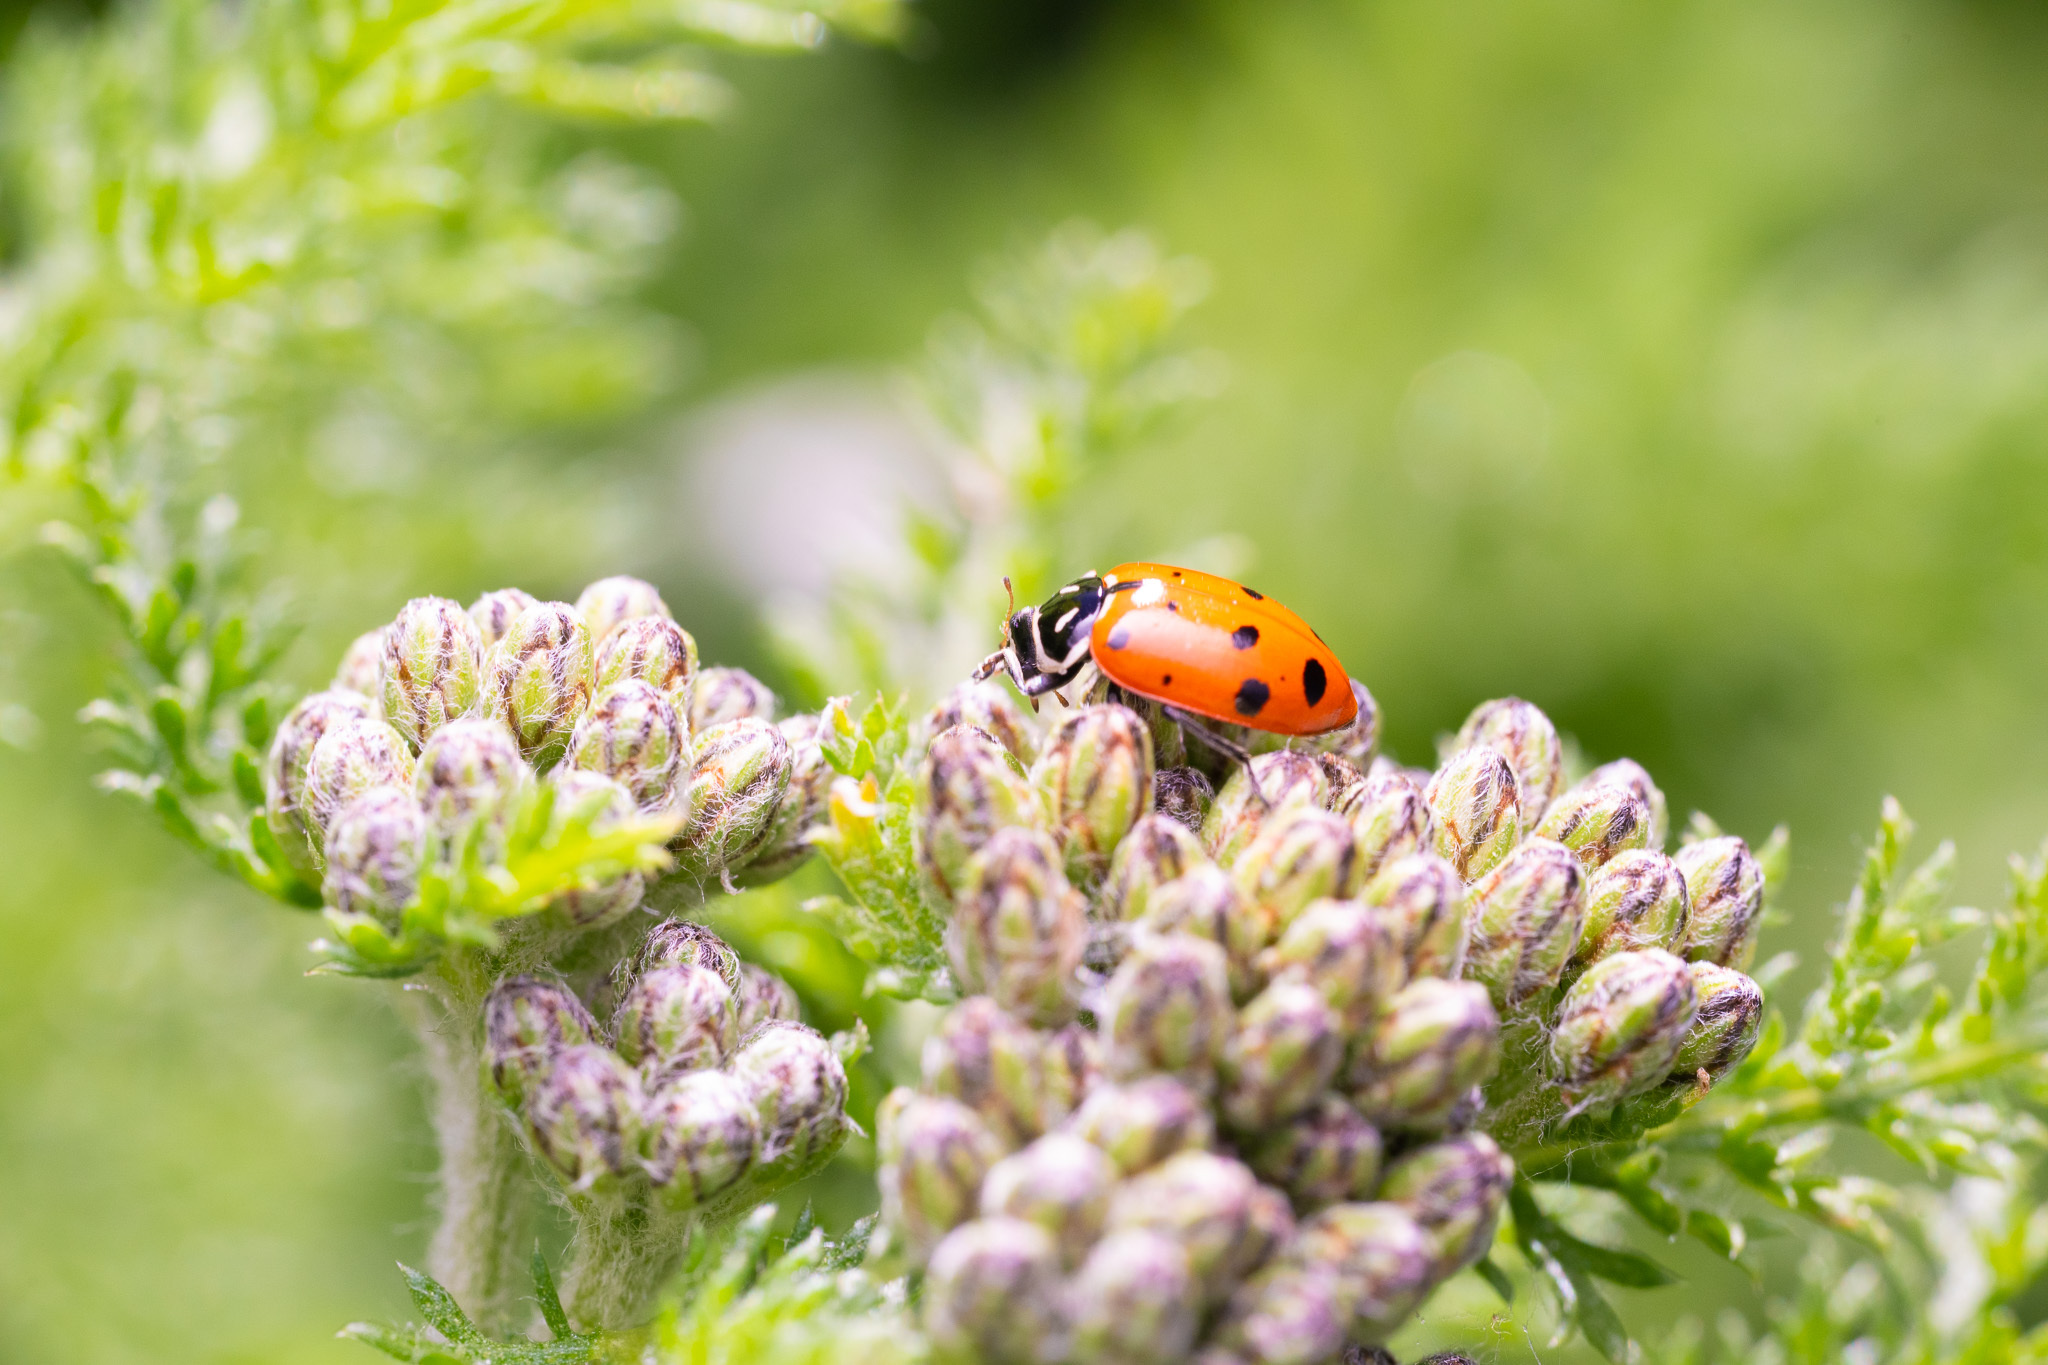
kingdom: Animalia
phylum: Arthropoda
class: Insecta
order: Coleoptera
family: Coccinellidae
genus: Hippodamia
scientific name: Hippodamia convergens
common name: Convergent lady beetle
